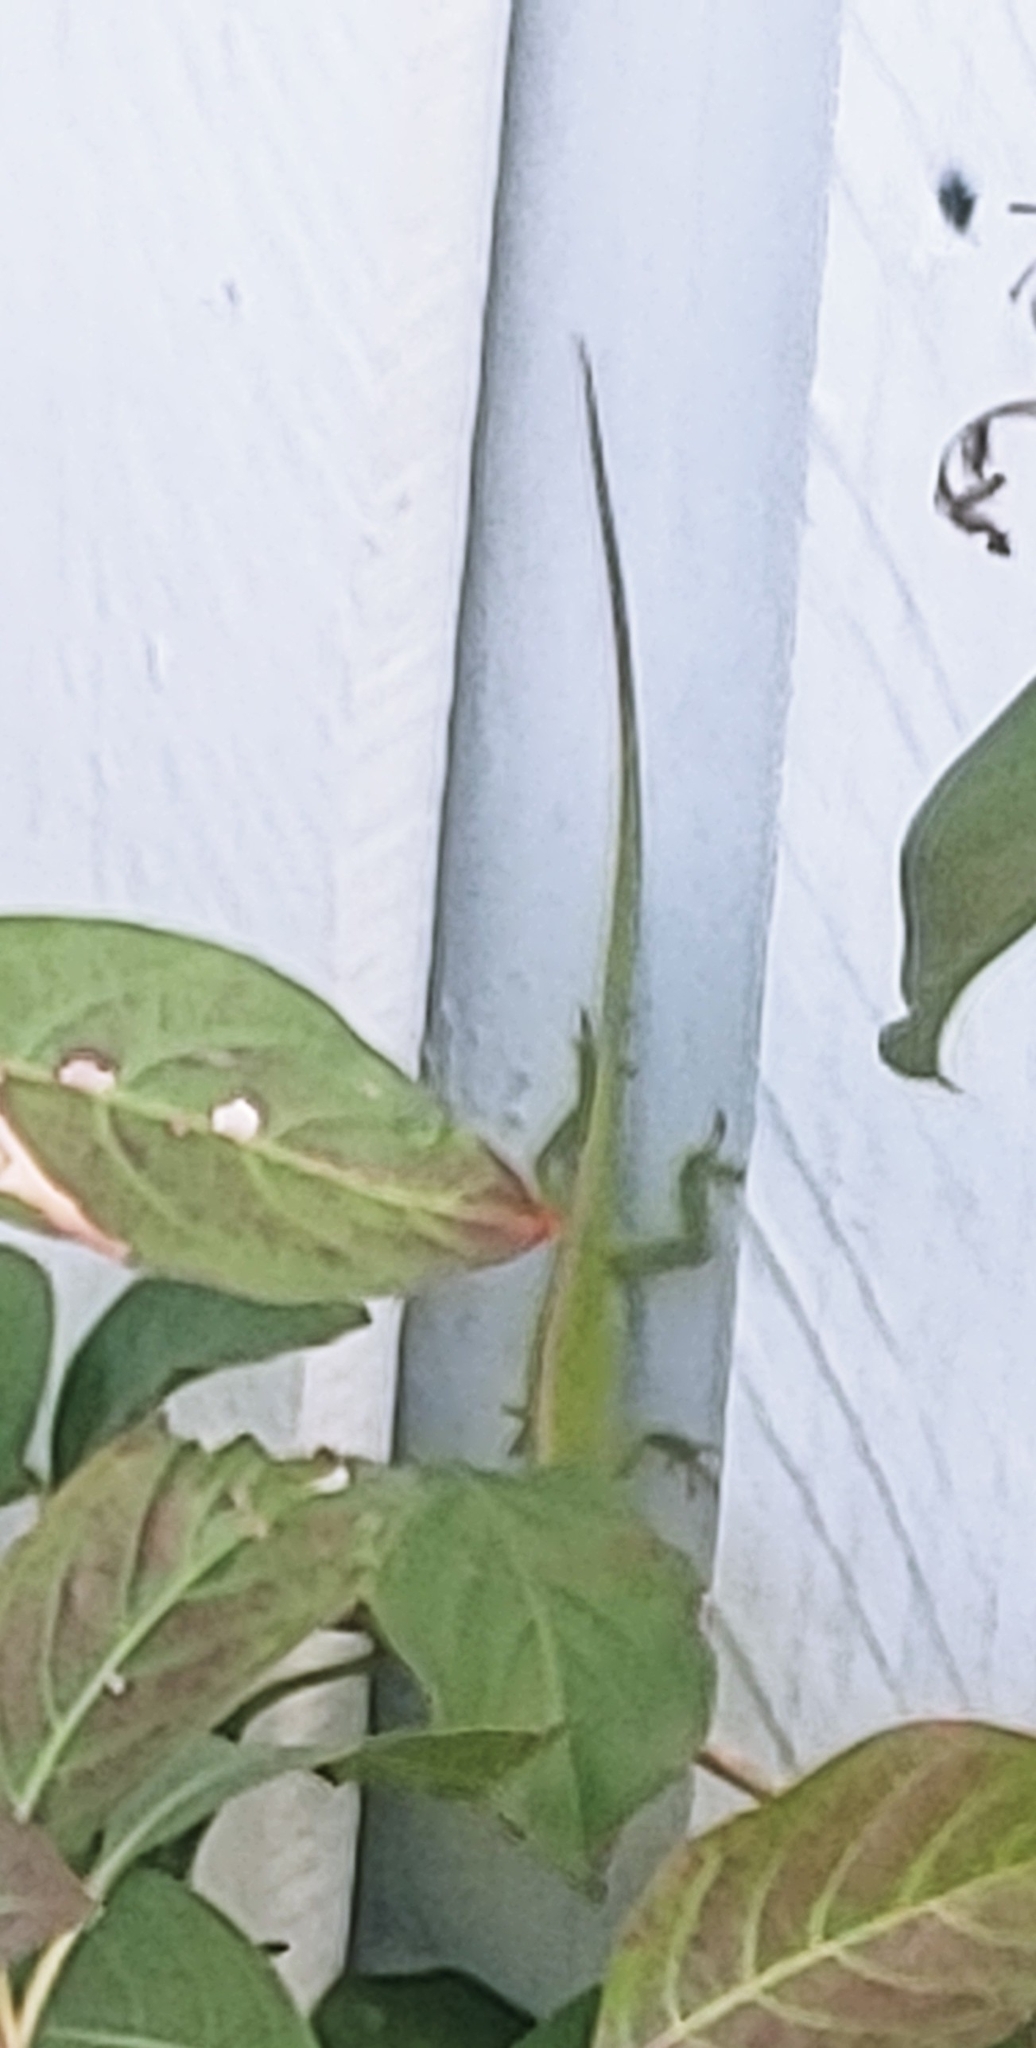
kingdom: Animalia
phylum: Chordata
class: Squamata
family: Dactyloidae
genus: Anolis
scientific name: Anolis carolinensis
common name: Green anole
